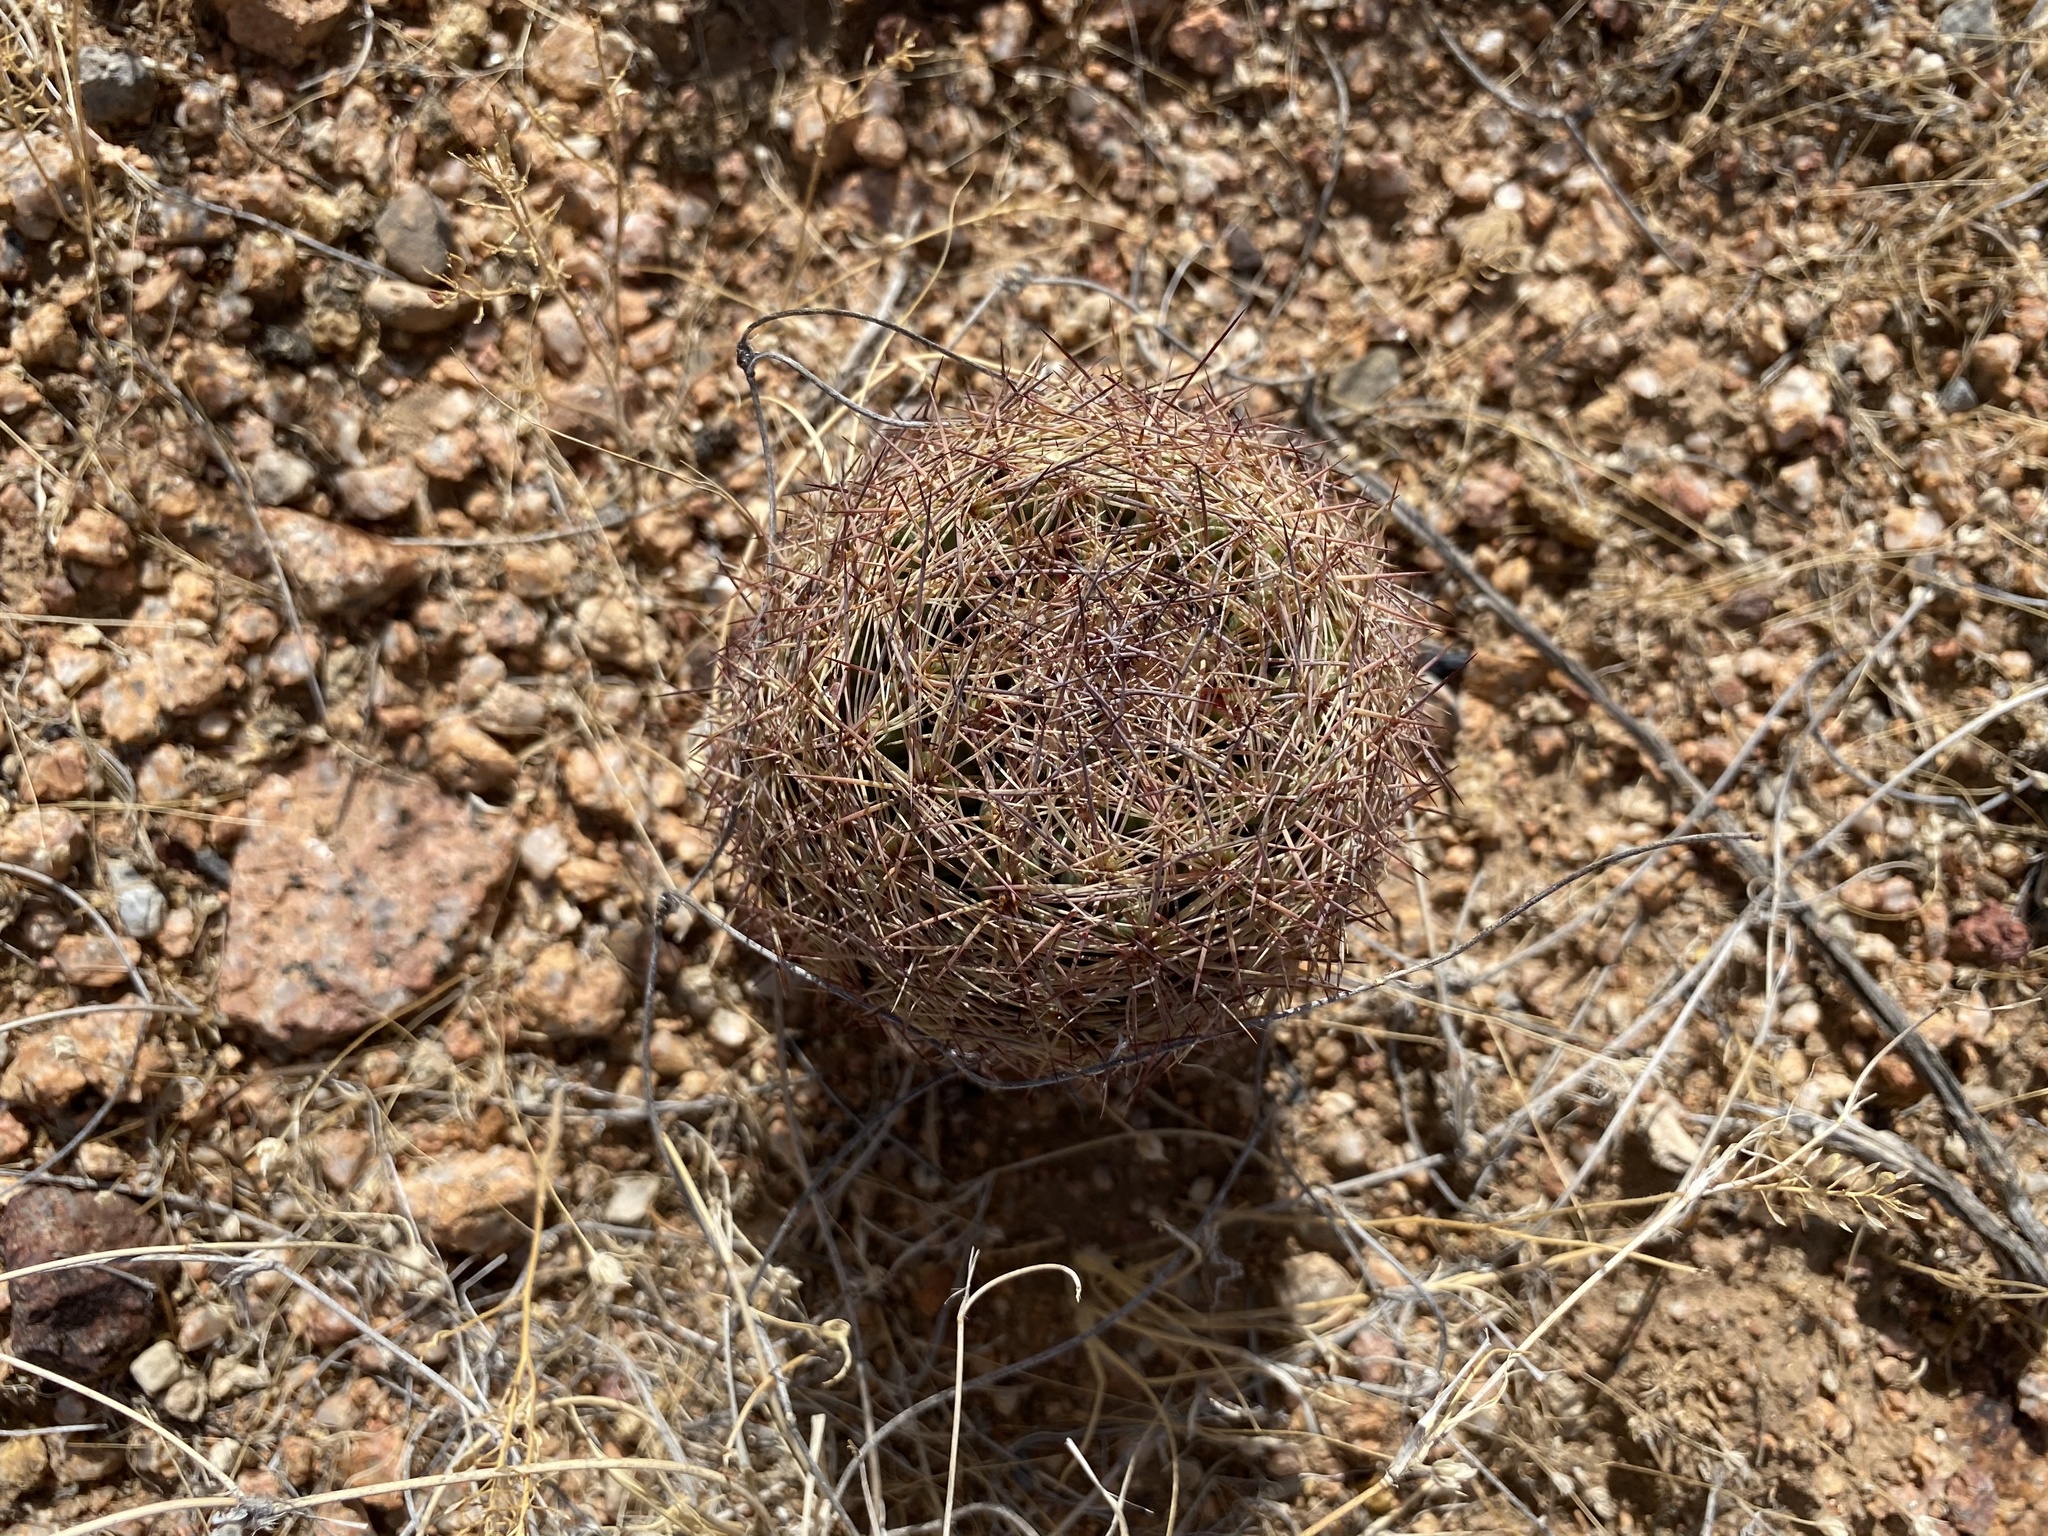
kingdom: Plantae
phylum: Tracheophyta
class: Magnoliopsida
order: Caryophyllales
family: Cactaceae
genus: Sclerocactus
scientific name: Sclerocactus intertextus
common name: White fish-hook cactus
